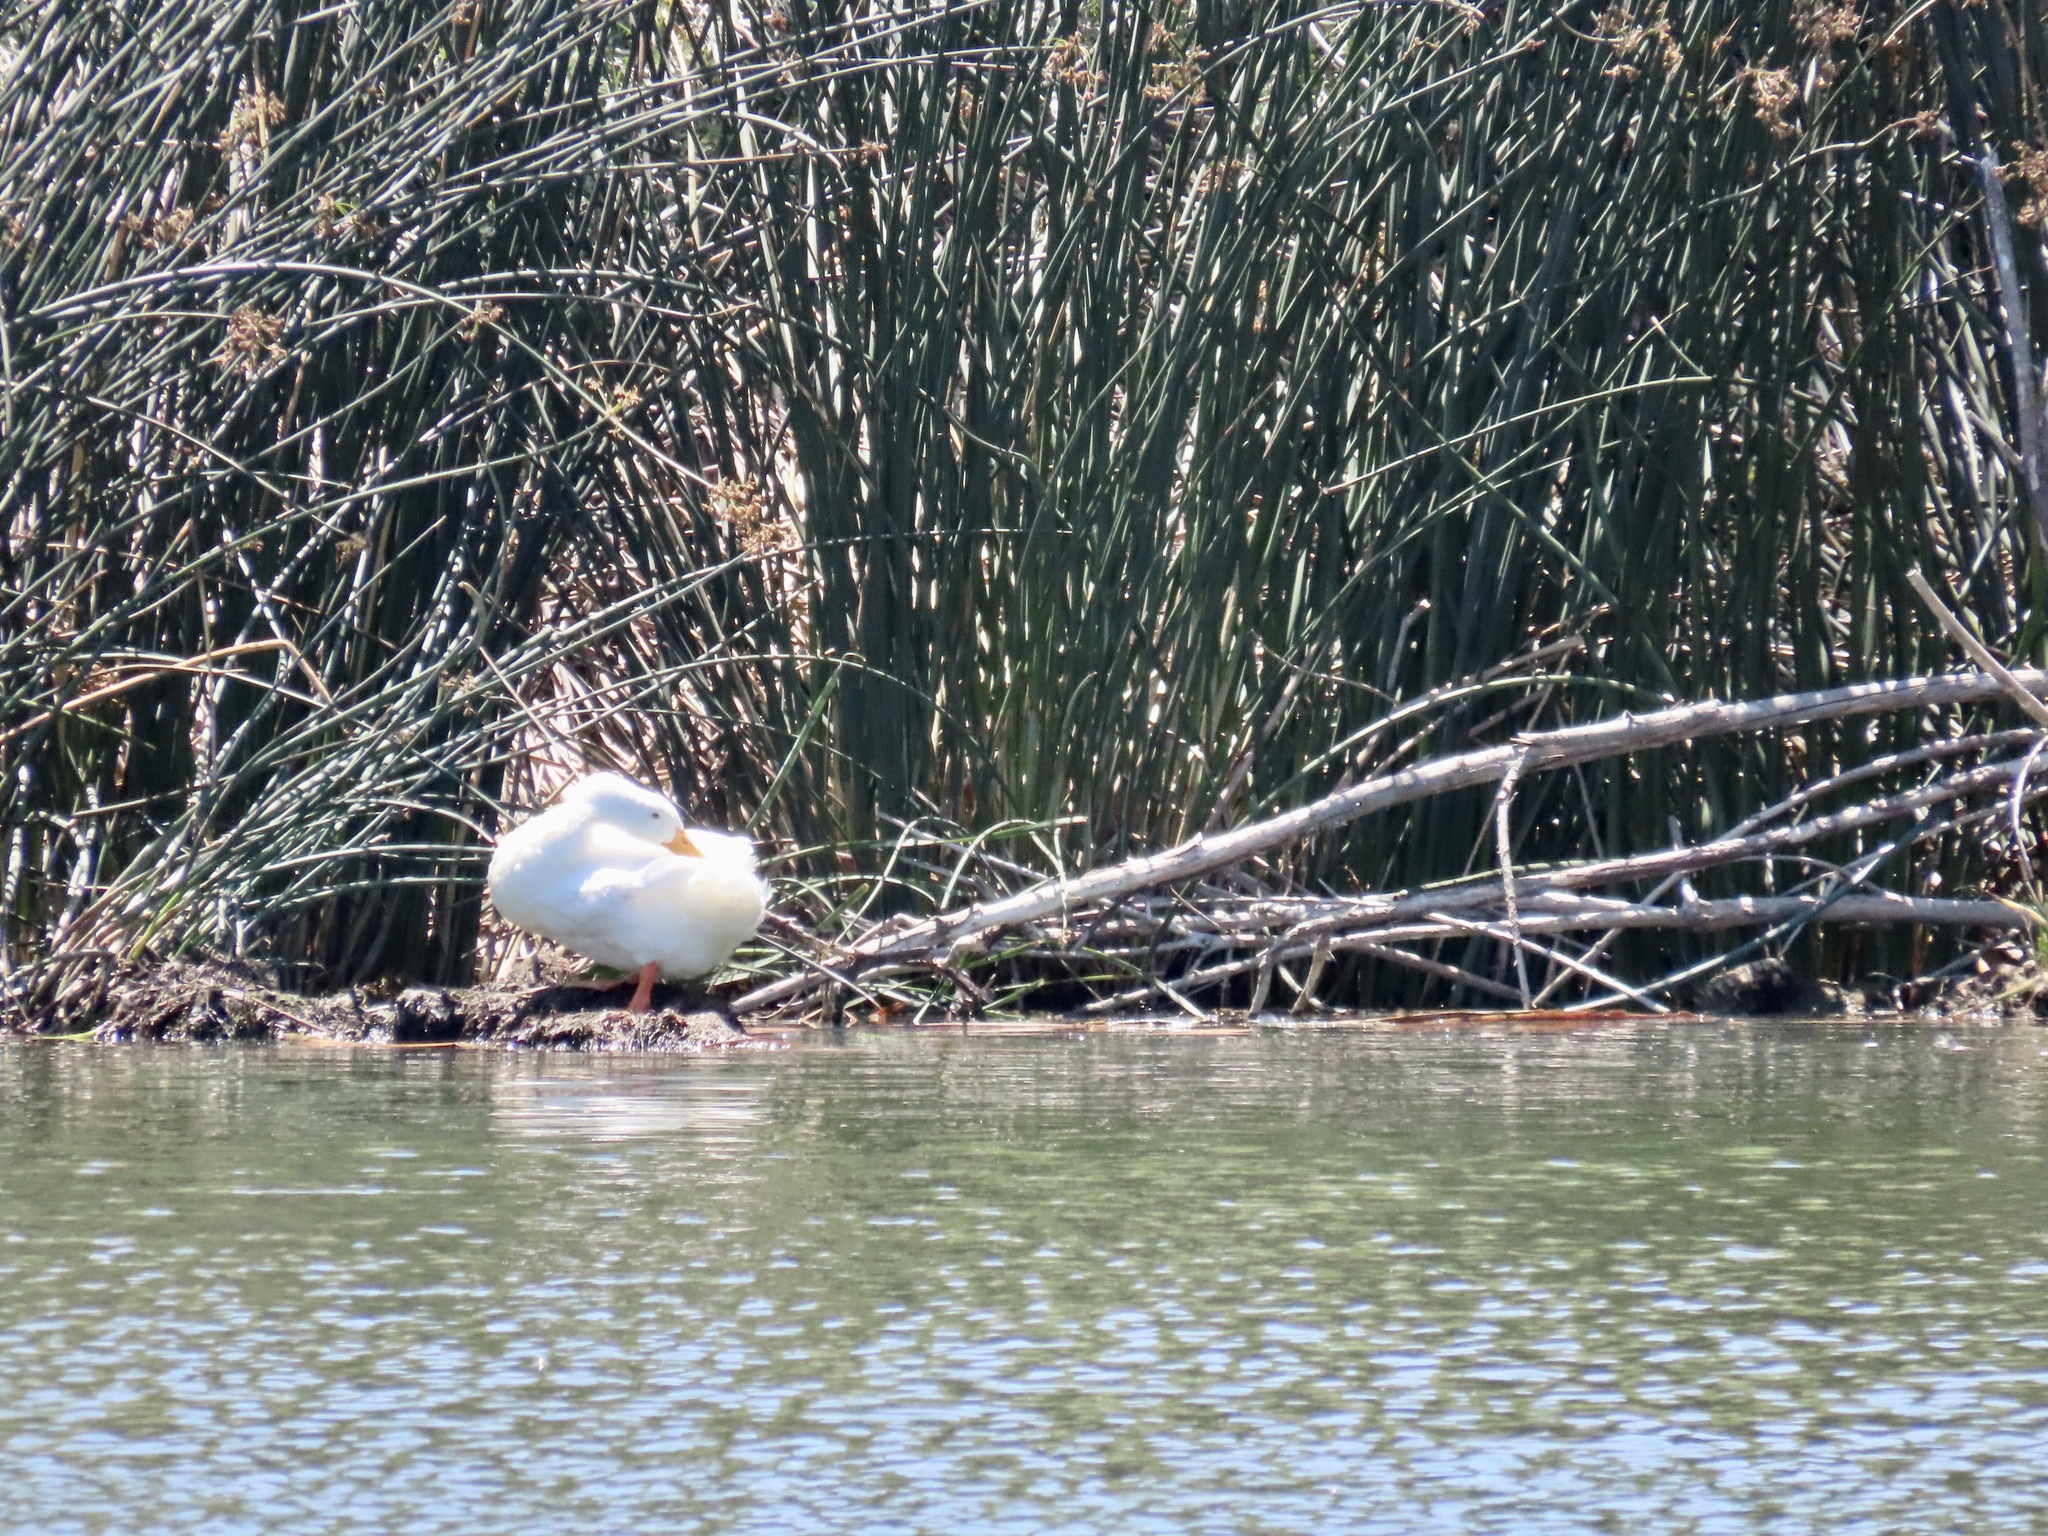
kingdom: Animalia
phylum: Chordata
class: Aves
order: Anseriformes
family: Anatidae
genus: Anas
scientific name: Anas platyrhynchos
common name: Mallard
